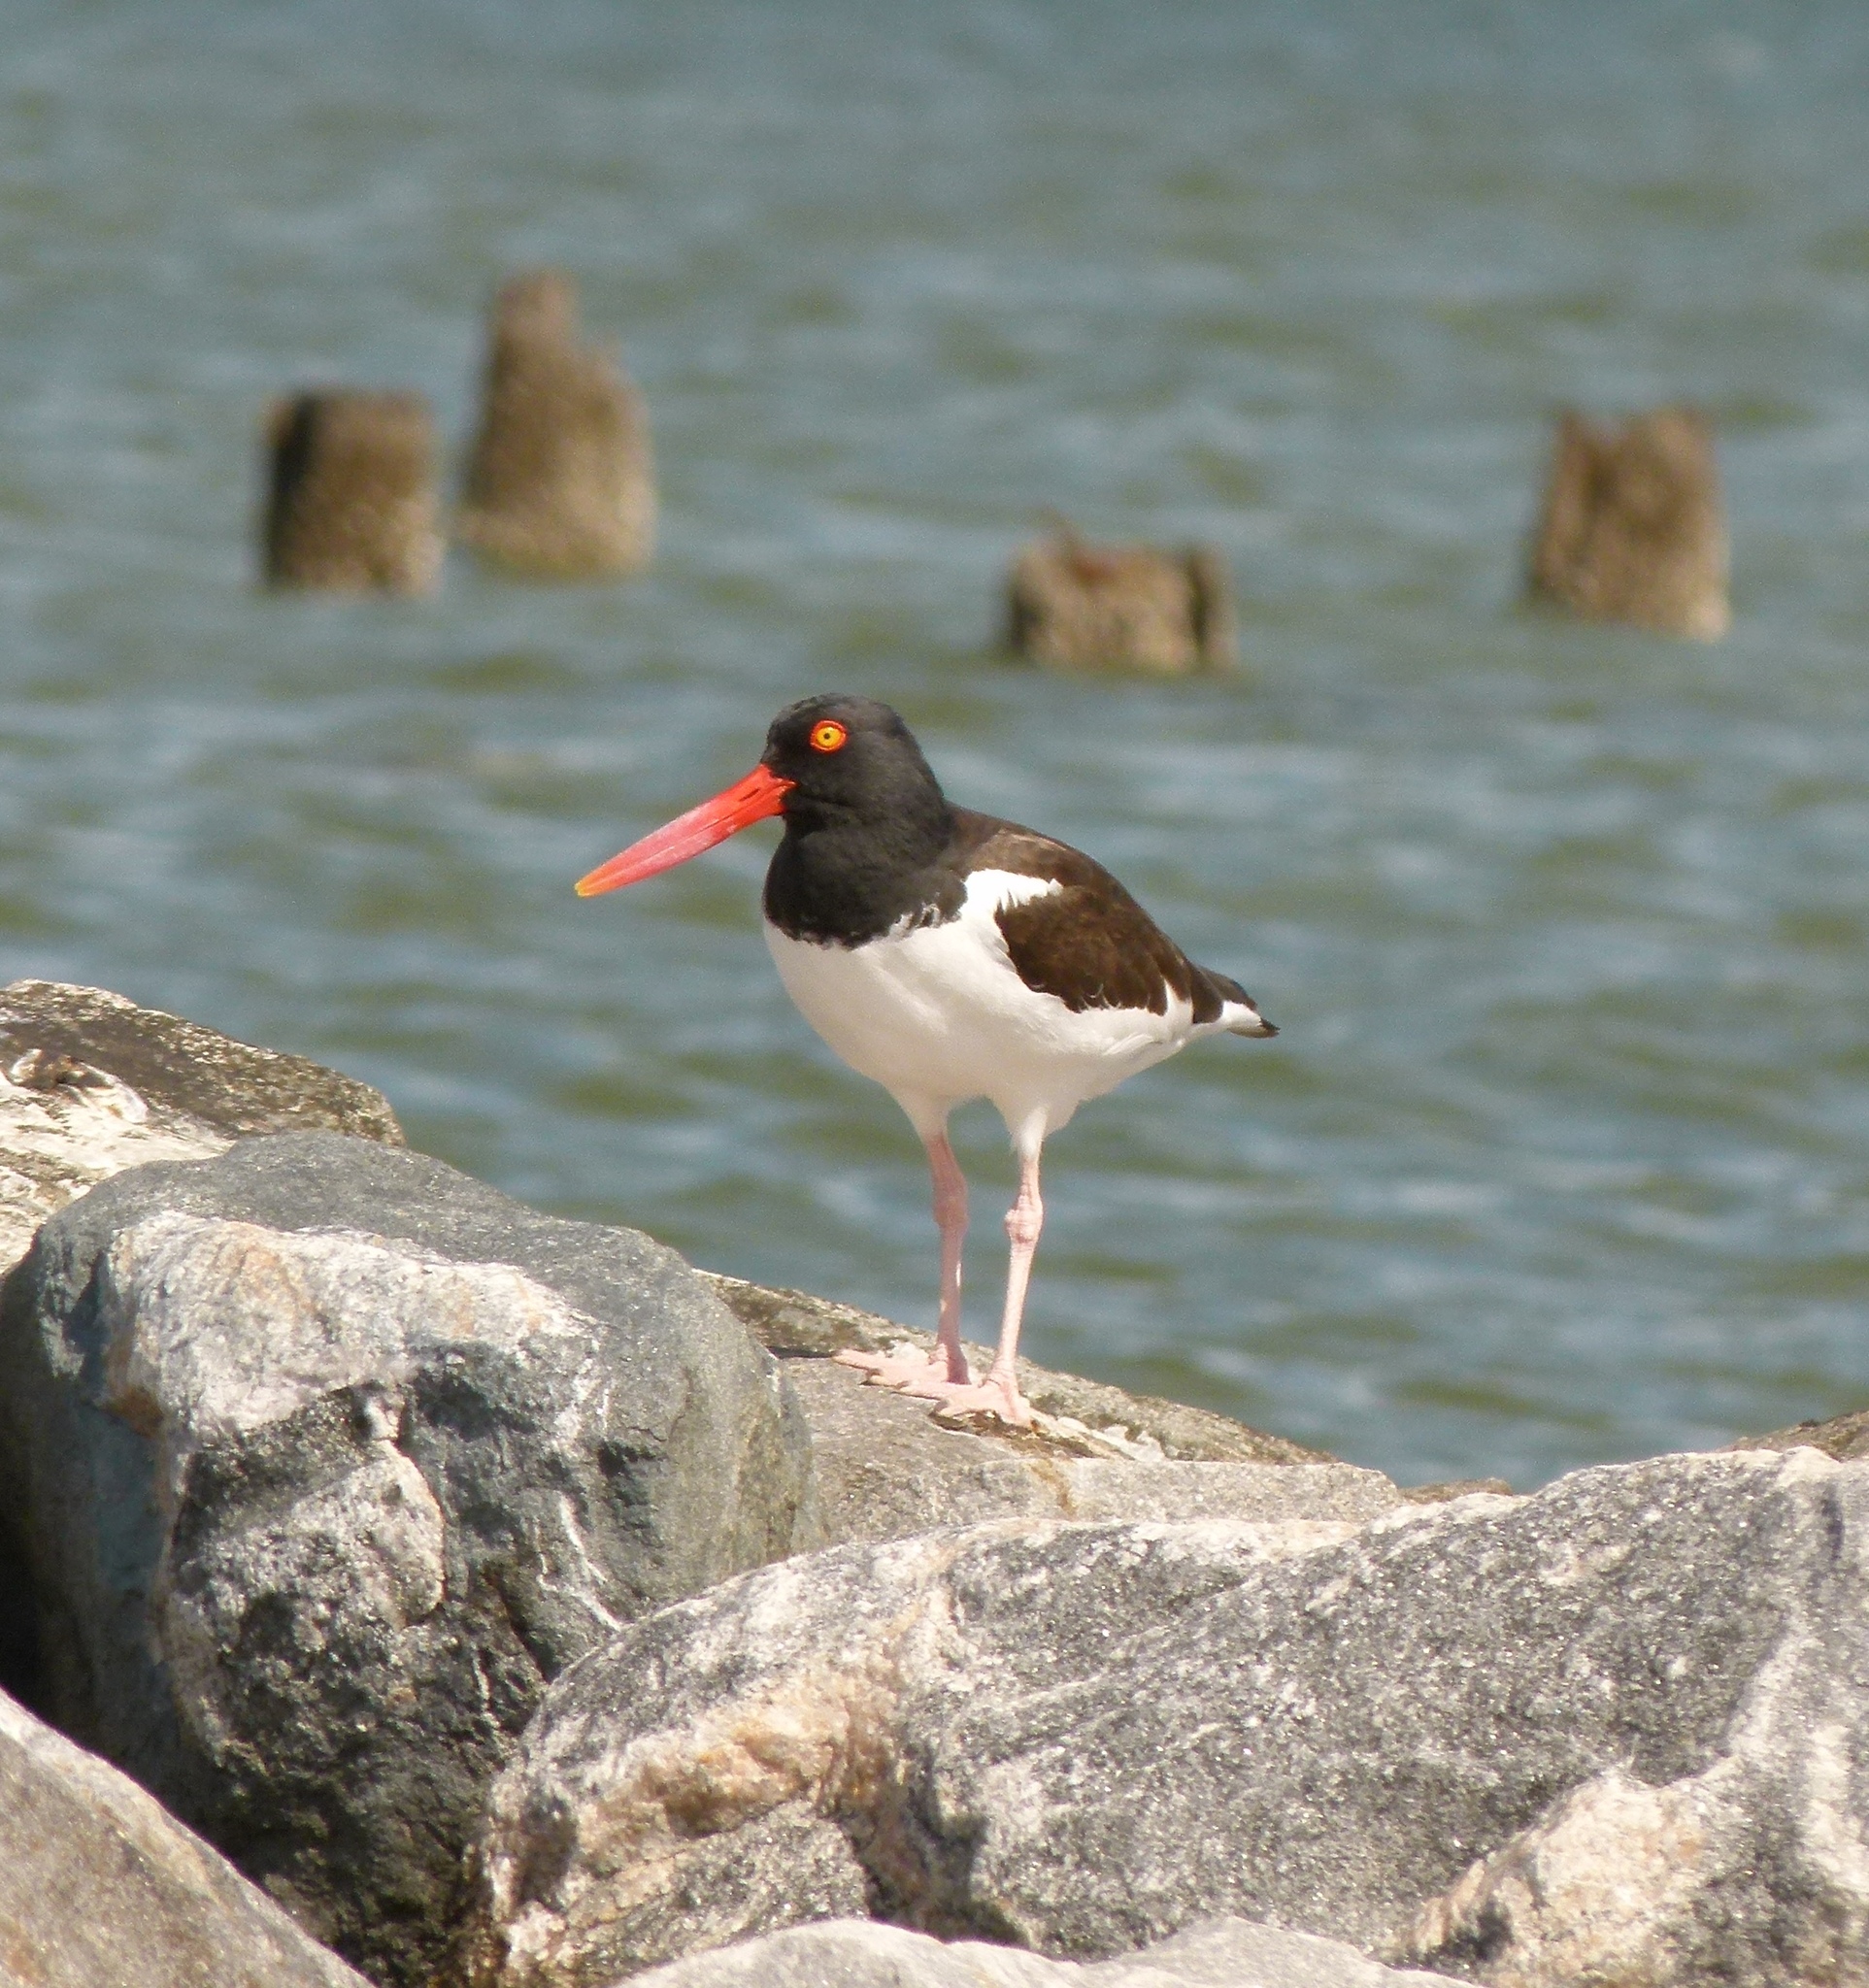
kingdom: Animalia
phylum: Chordata
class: Aves
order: Charadriiformes
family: Haematopodidae
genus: Haematopus
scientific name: Haematopus palliatus
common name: American oystercatcher
